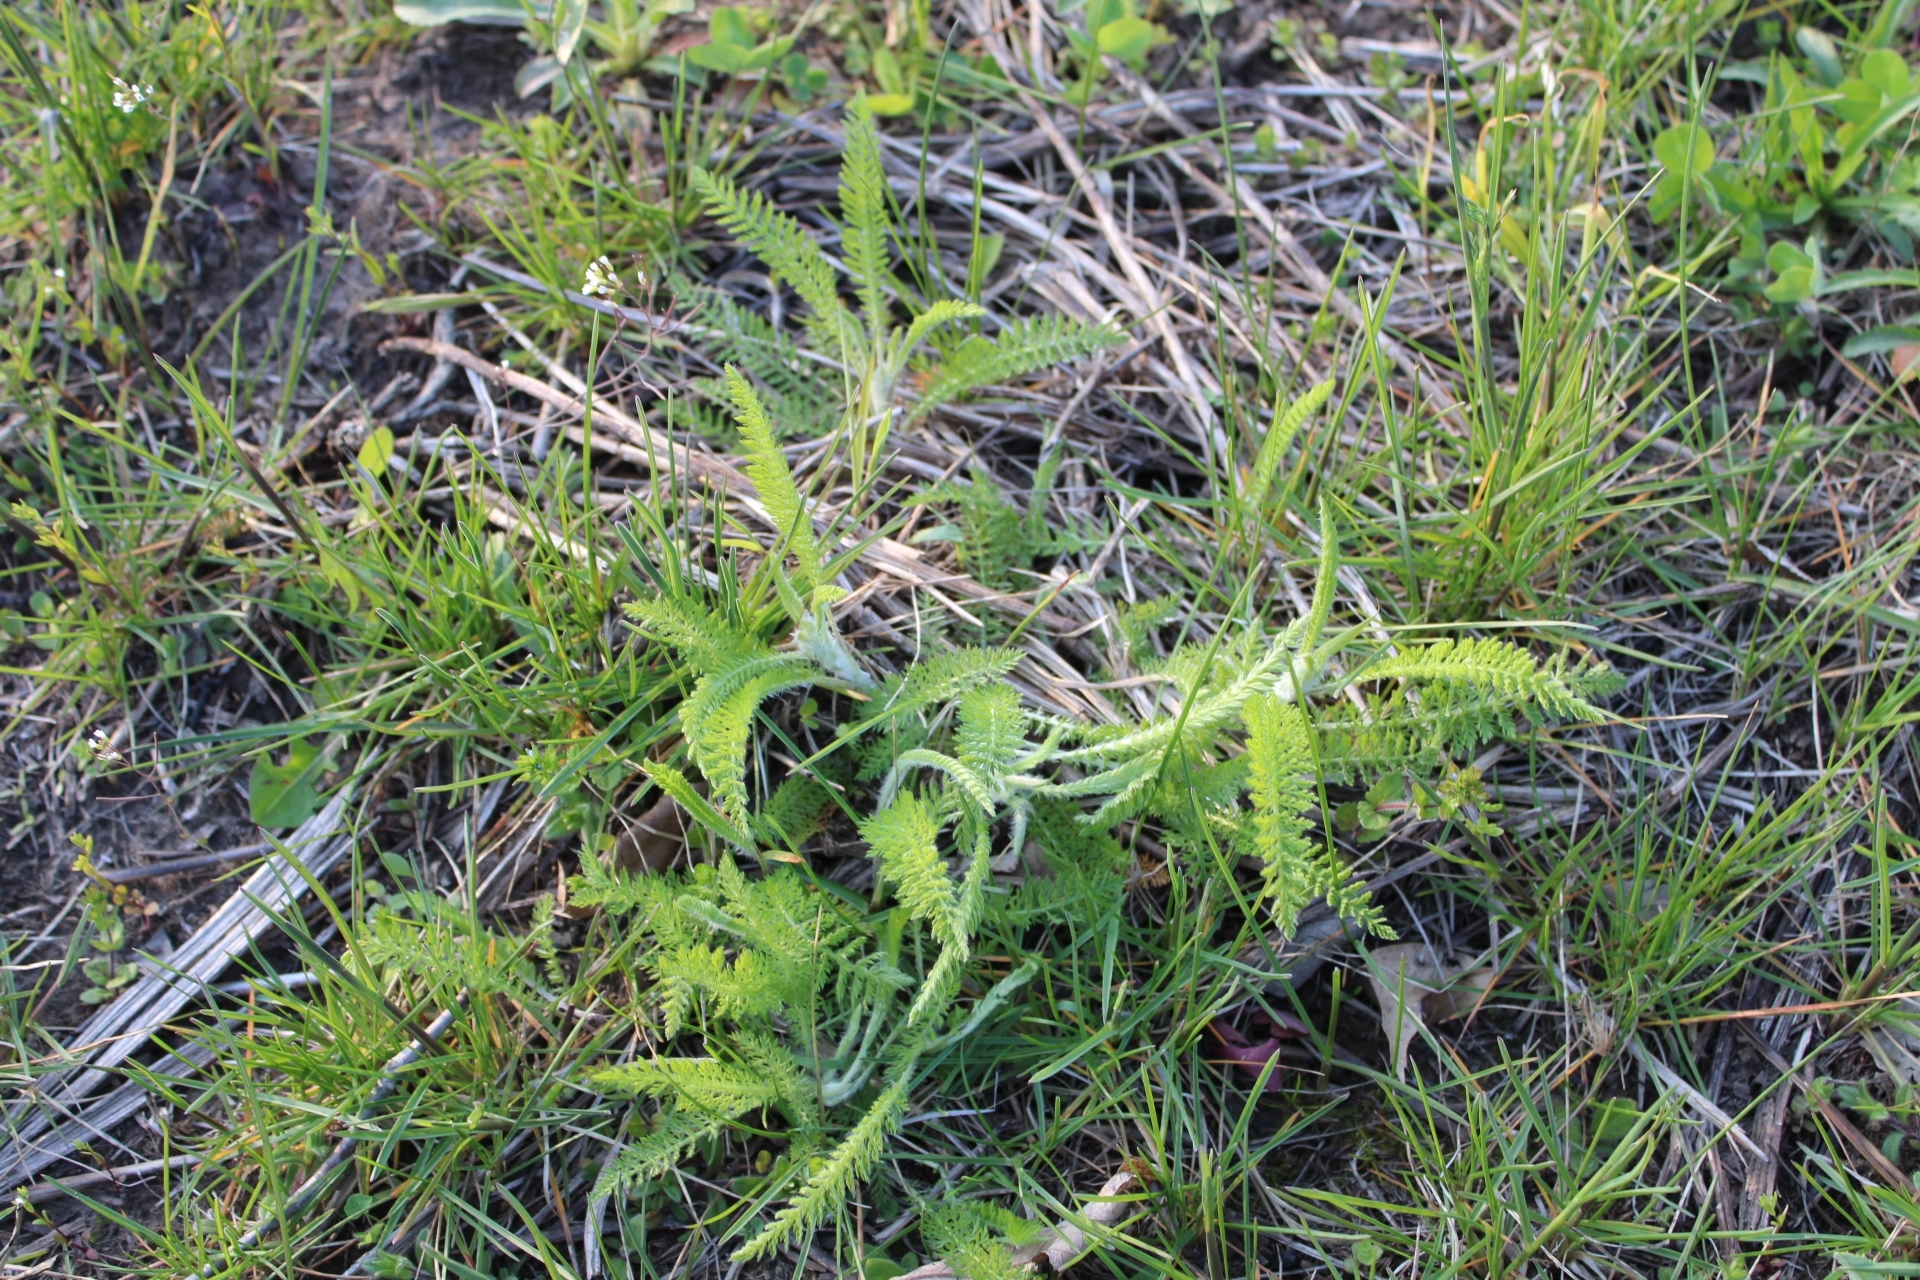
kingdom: Plantae
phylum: Tracheophyta
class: Magnoliopsida
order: Asterales
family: Asteraceae
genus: Achillea
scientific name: Achillea millefolium
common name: Yarrow
